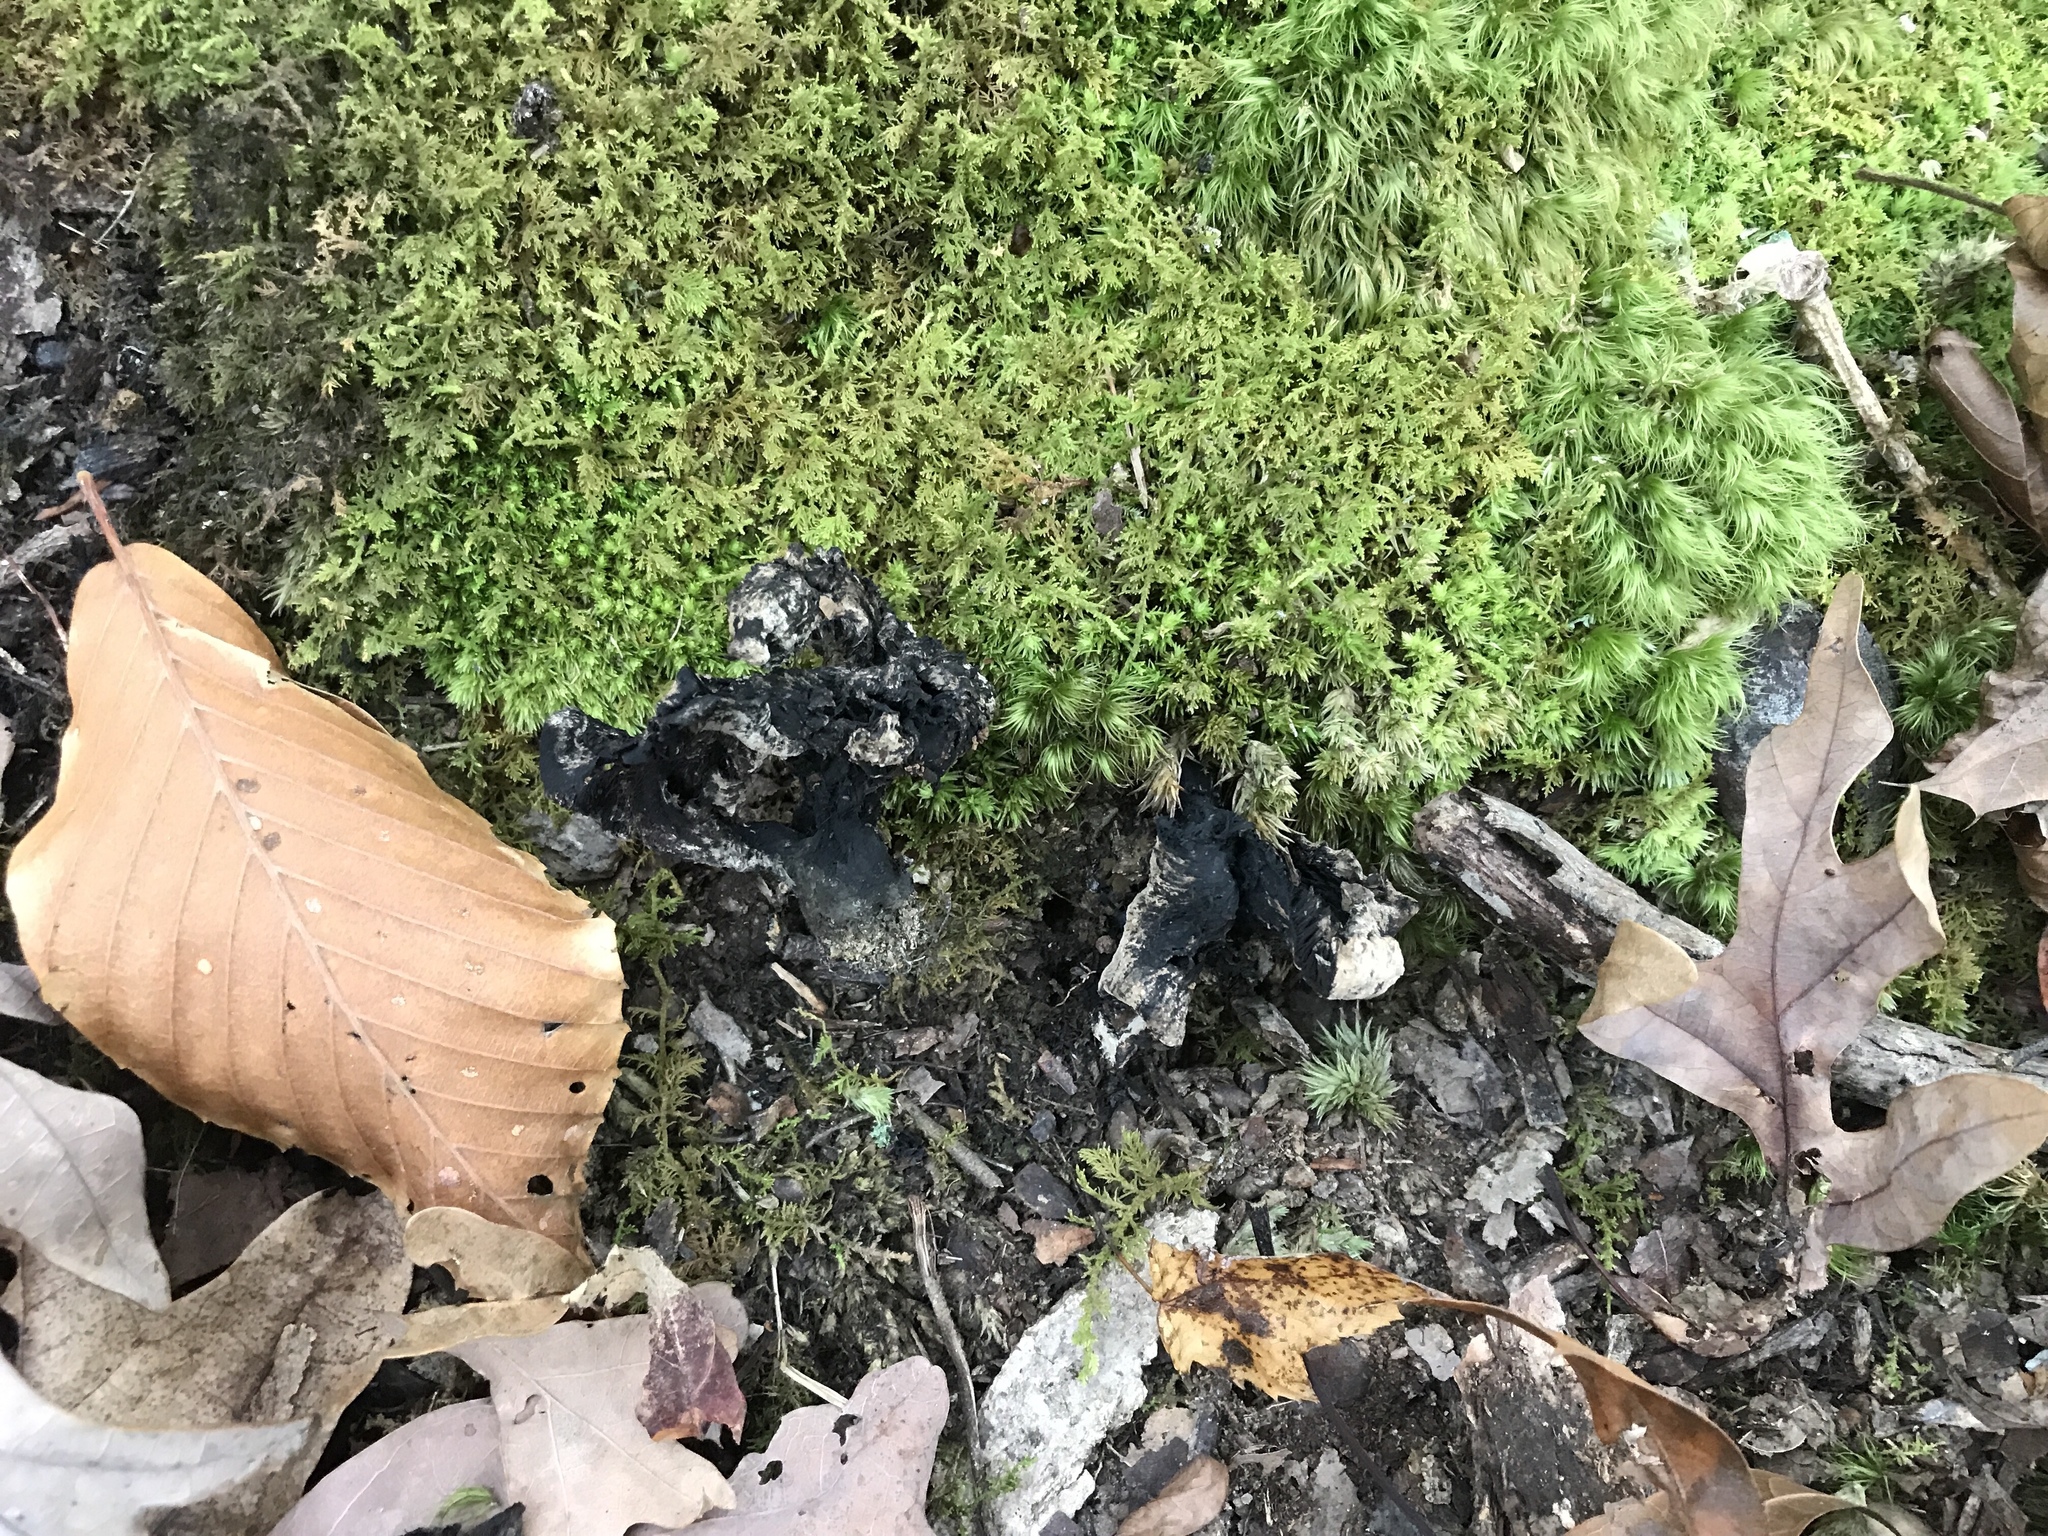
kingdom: Fungi
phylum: Basidiomycota
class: Agaricomycetes
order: Thelephorales
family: Bankeraceae
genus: Hydnellum
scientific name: Hydnellum scabrosum
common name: Bitter tooth
